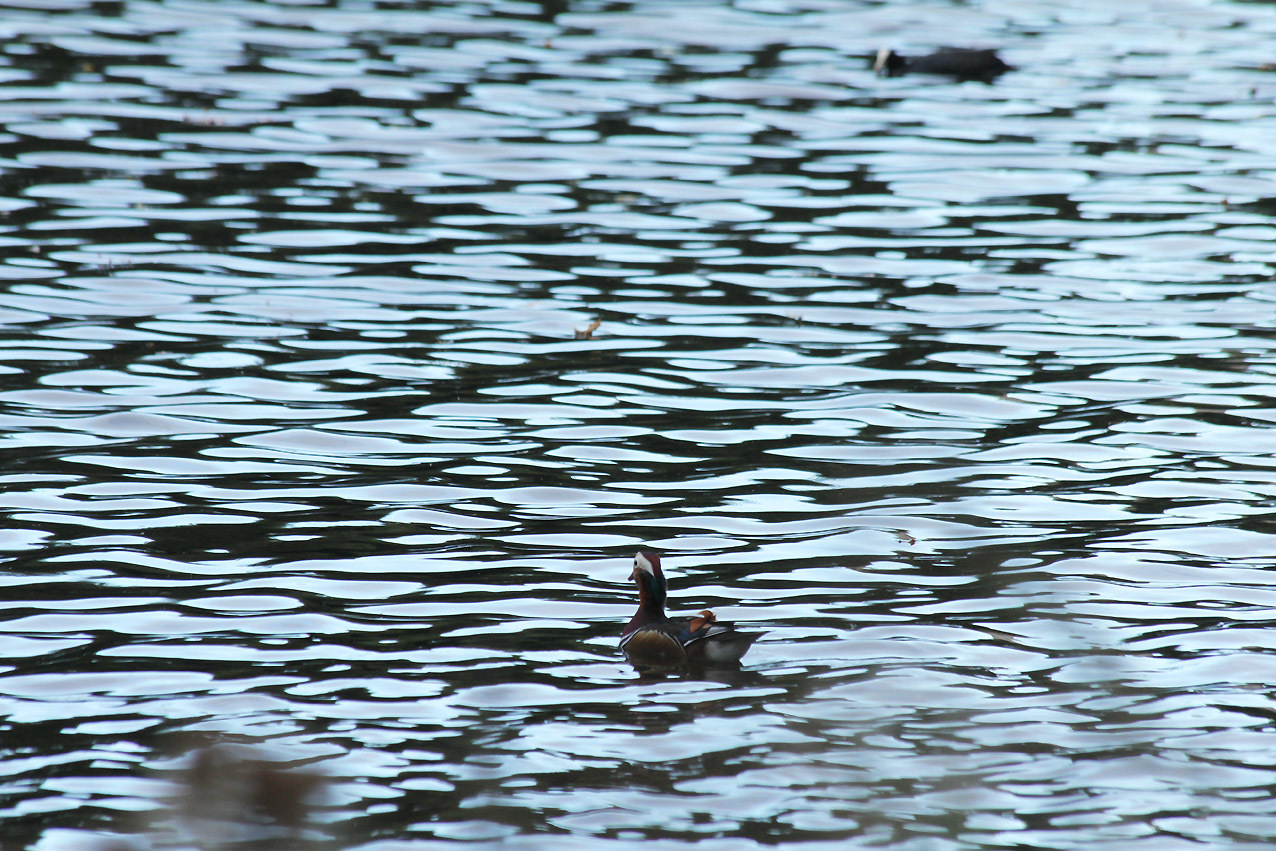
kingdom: Animalia
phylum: Chordata
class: Aves
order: Anseriformes
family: Anatidae
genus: Aix
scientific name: Aix galericulata
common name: Mandarin duck
